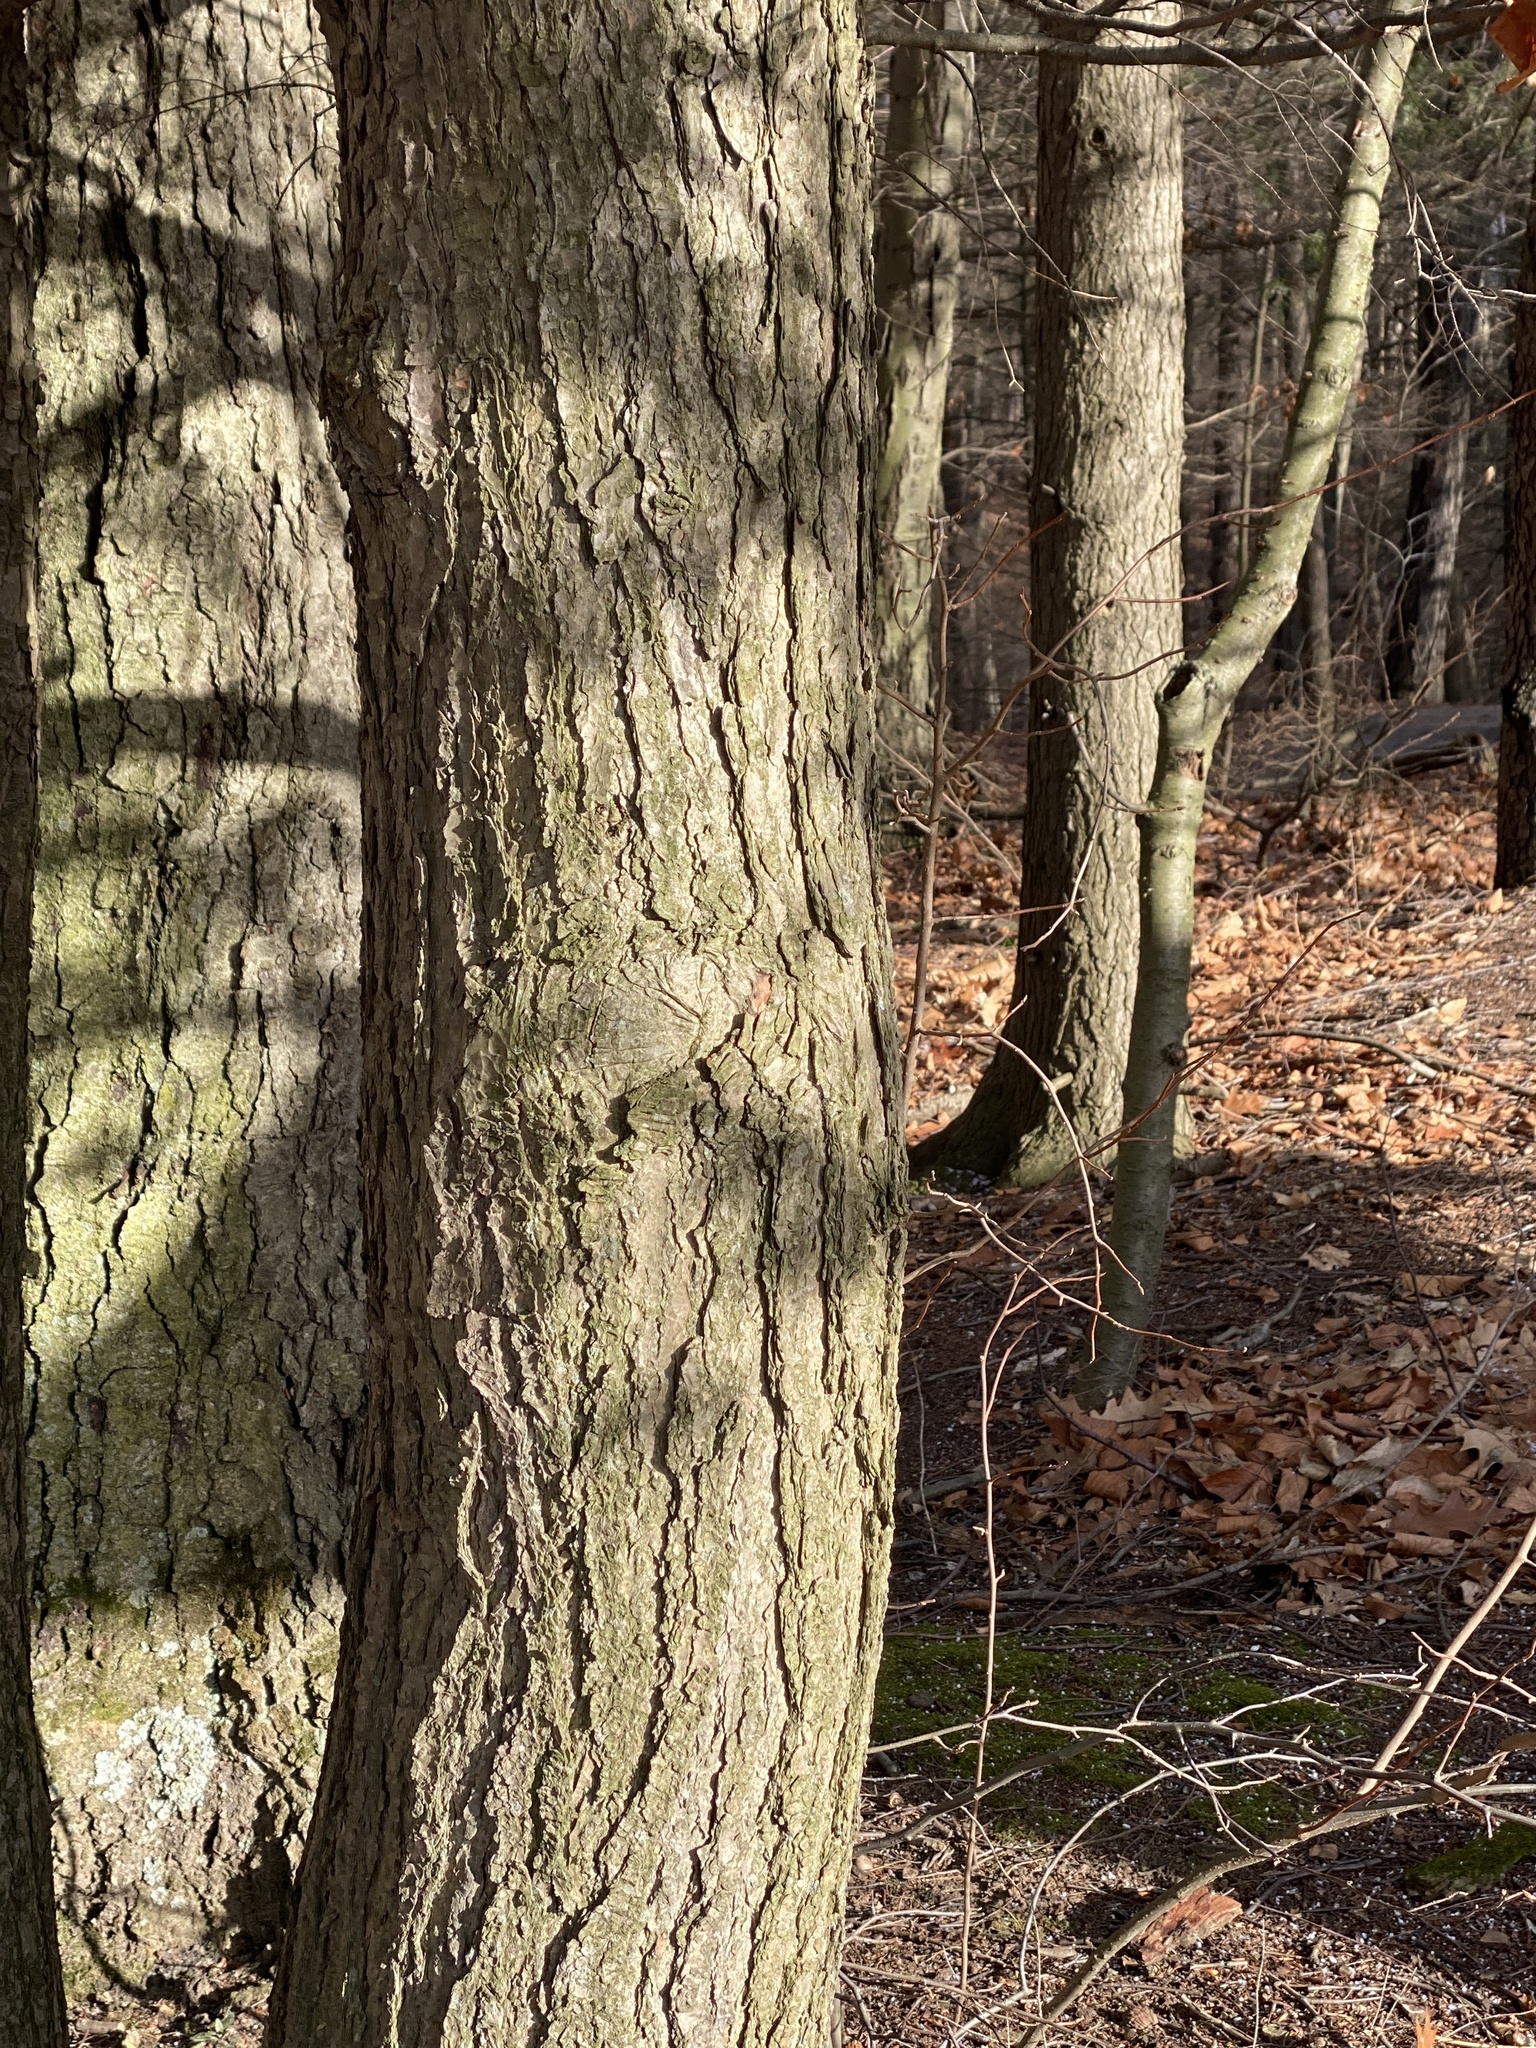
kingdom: Plantae
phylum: Tracheophyta
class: Pinopsida
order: Pinales
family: Pinaceae
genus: Tsuga
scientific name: Tsuga canadensis
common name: Eastern hemlock
